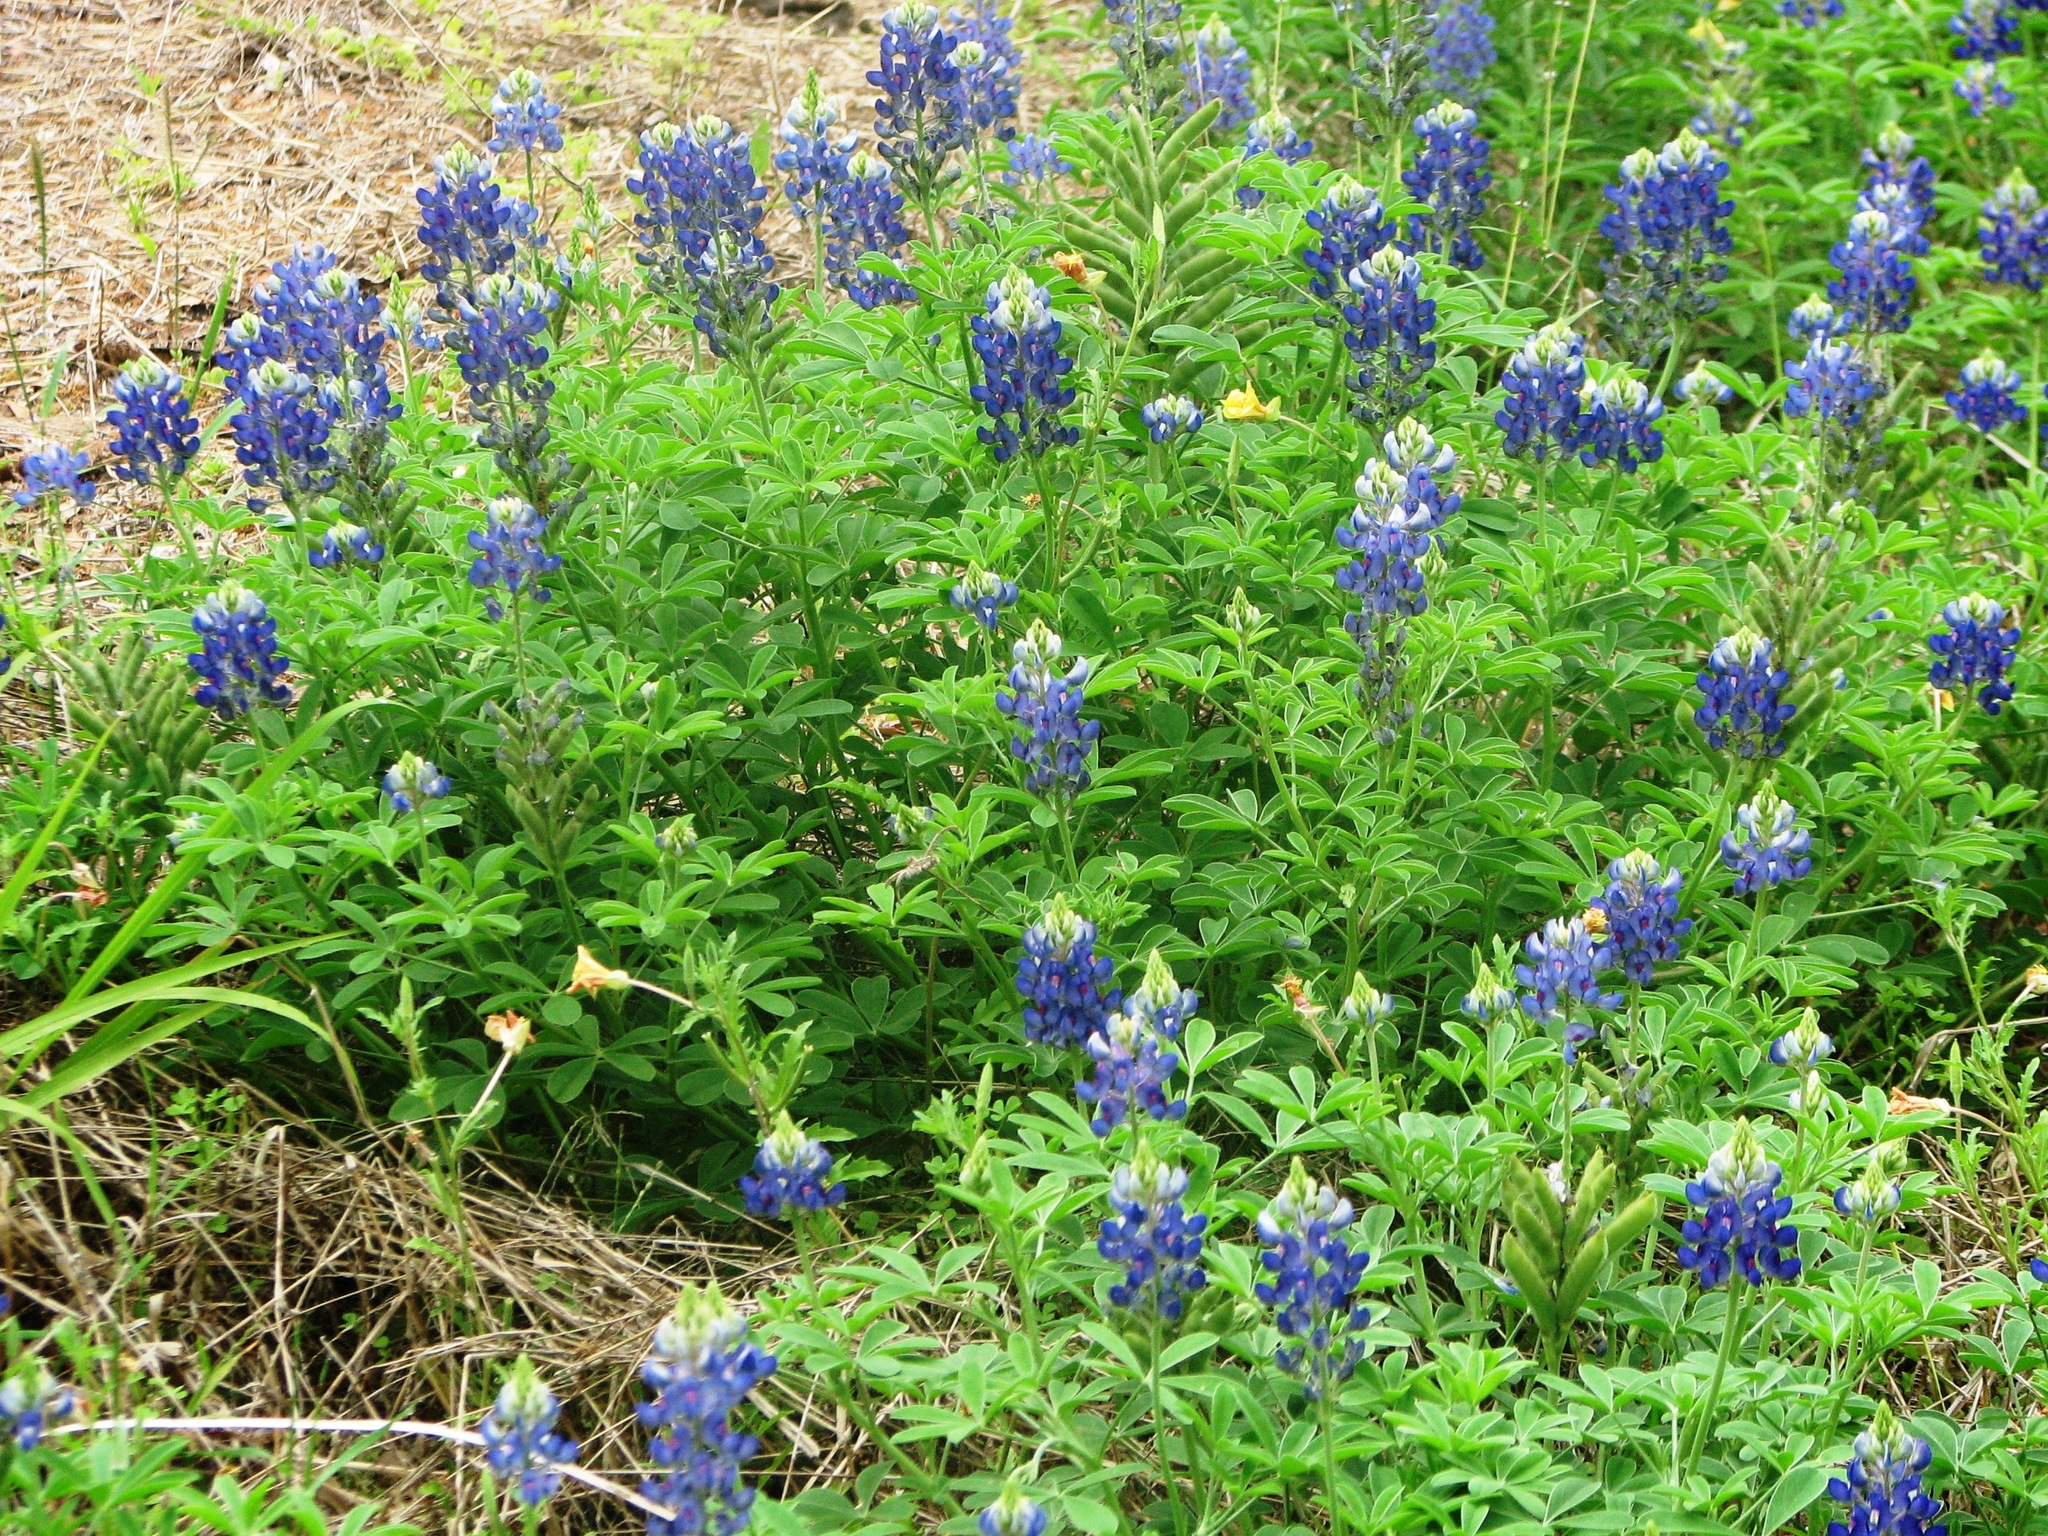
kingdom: Plantae
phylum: Tracheophyta
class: Magnoliopsida
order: Fabales
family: Fabaceae
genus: Lupinus
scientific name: Lupinus texensis
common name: Texas bluebonnet
